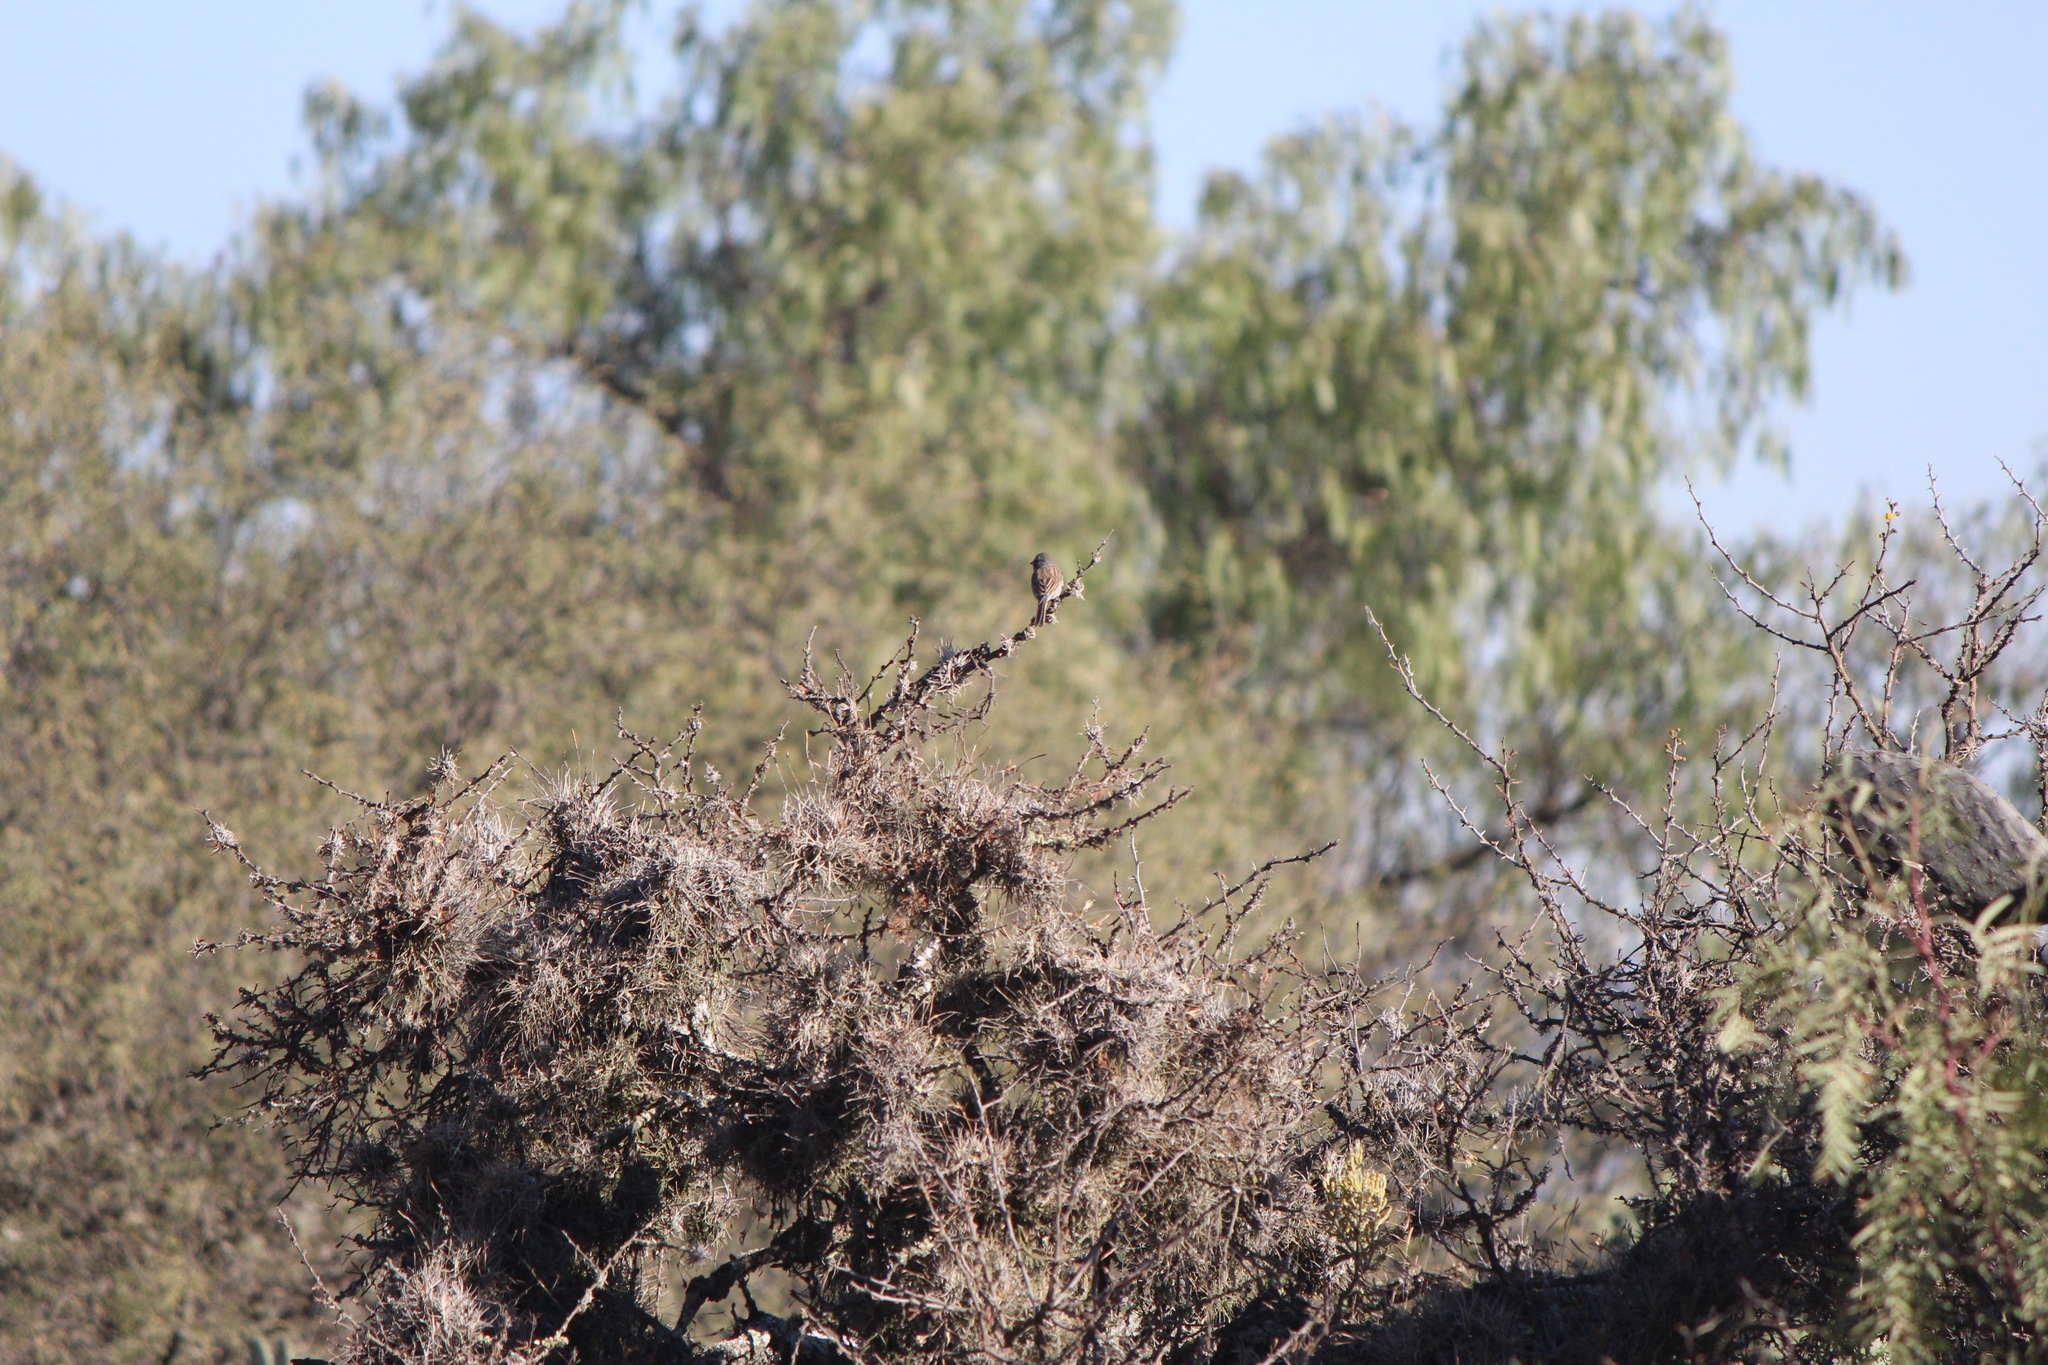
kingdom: Animalia
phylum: Chordata
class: Aves
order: Passeriformes
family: Passerellidae
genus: Spizella
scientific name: Spizella atrogularis
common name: Black-chinned sparrow
